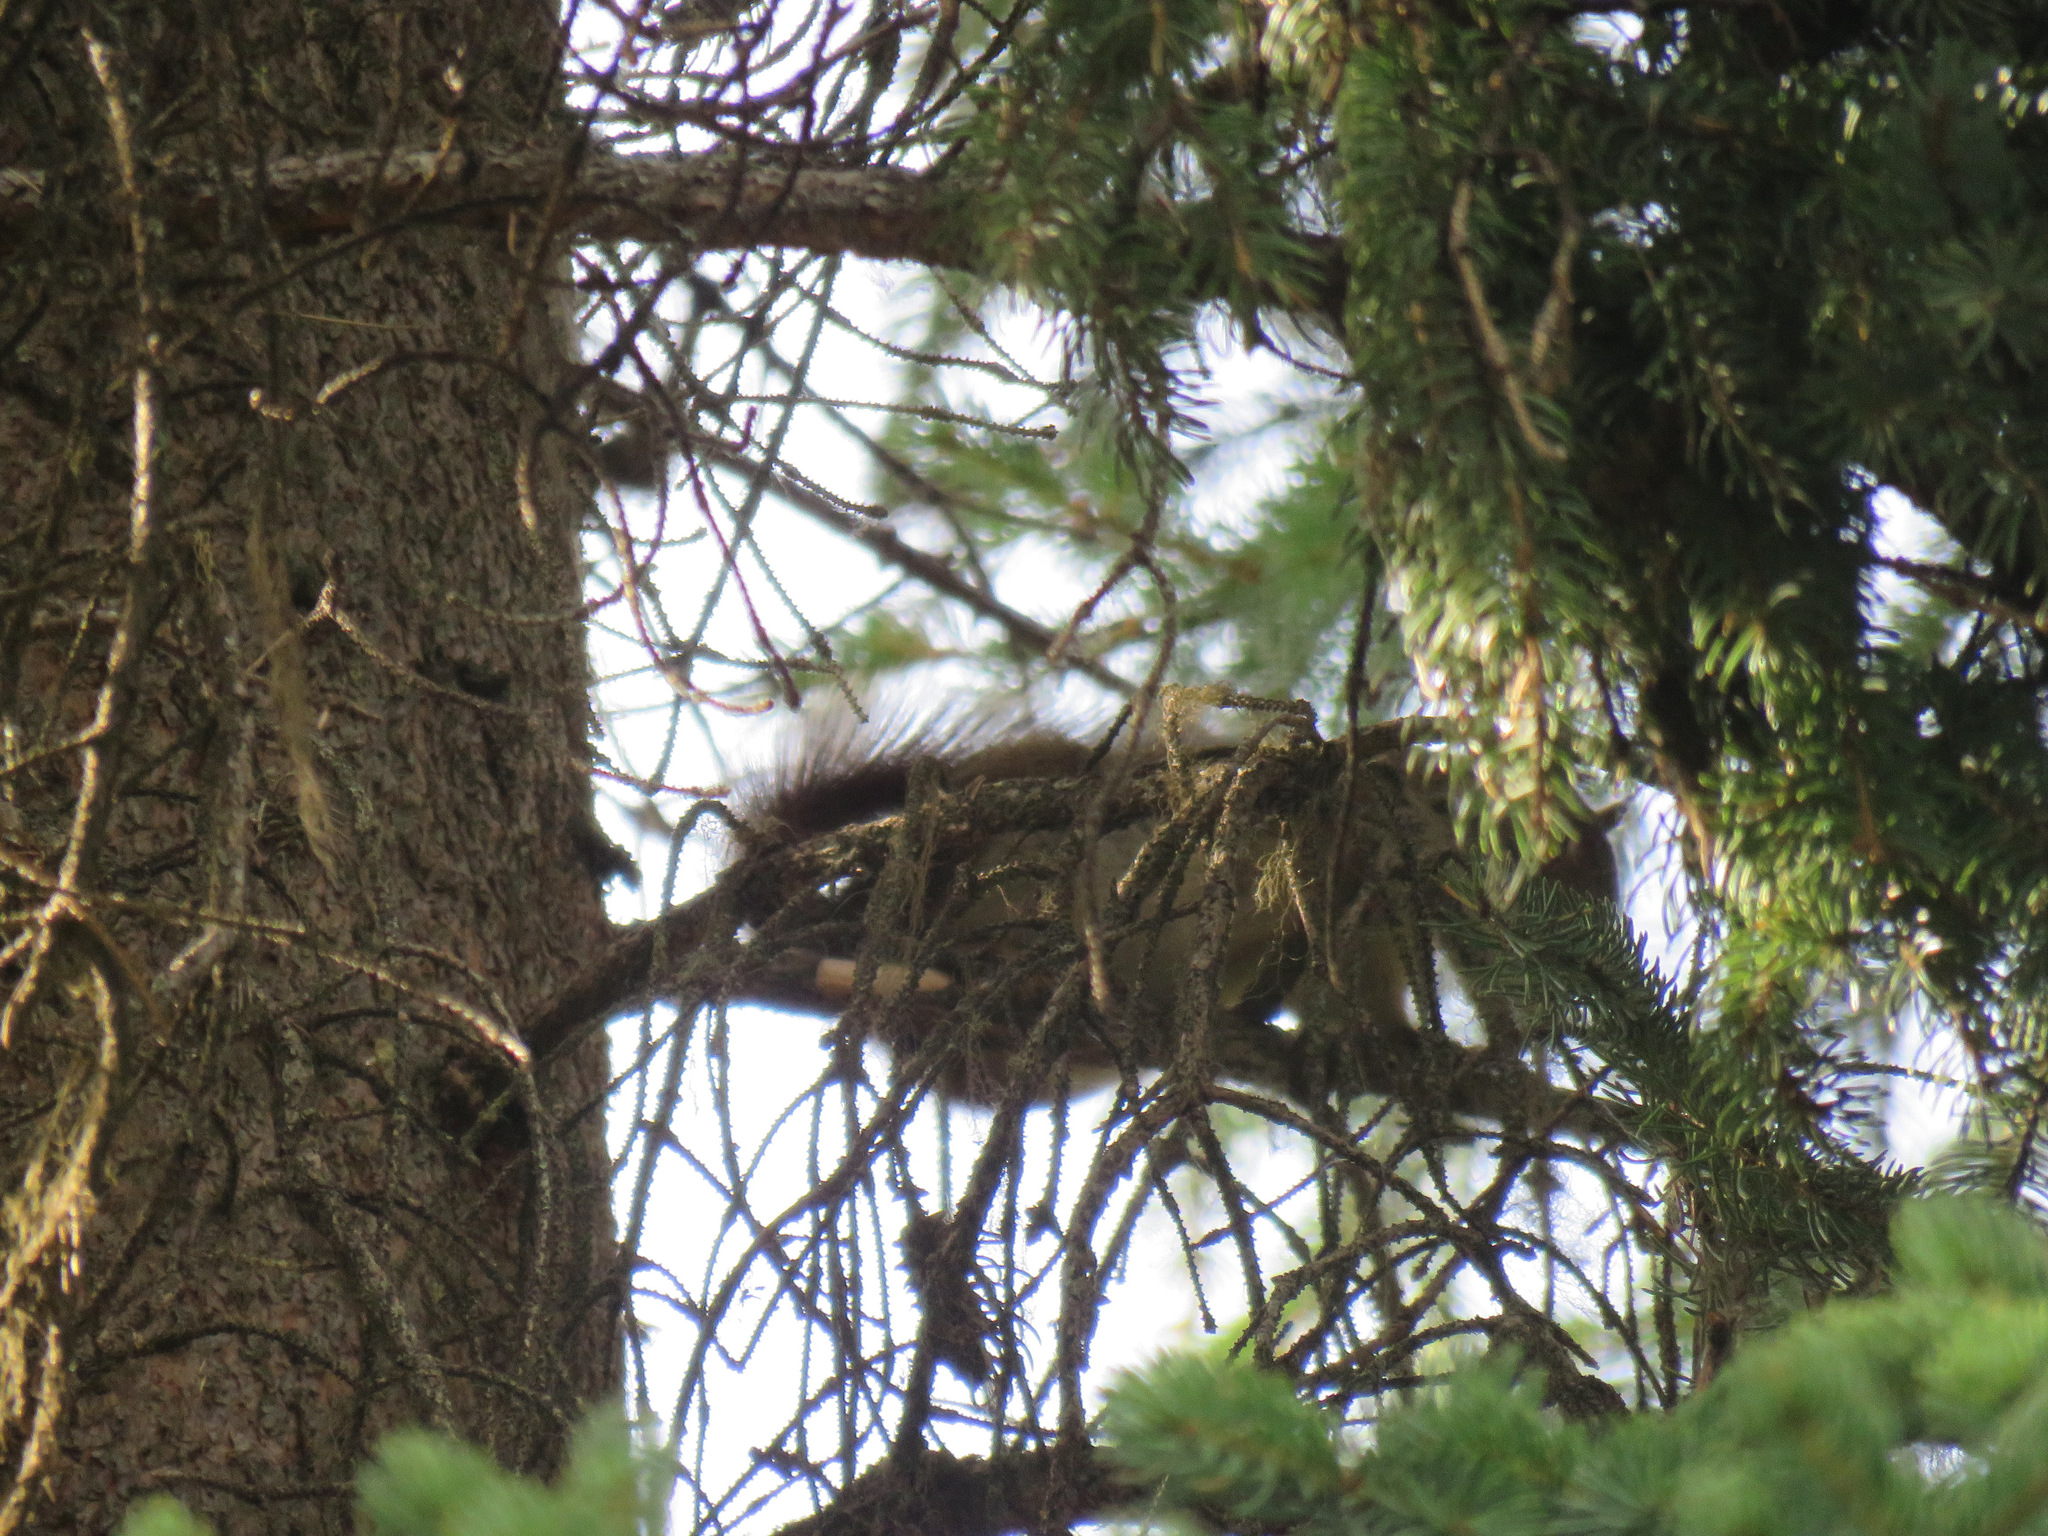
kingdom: Animalia
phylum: Chordata
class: Mammalia
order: Rodentia
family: Sciuridae
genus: Tamiasciurus
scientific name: Tamiasciurus hudsonicus
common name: Red squirrel
